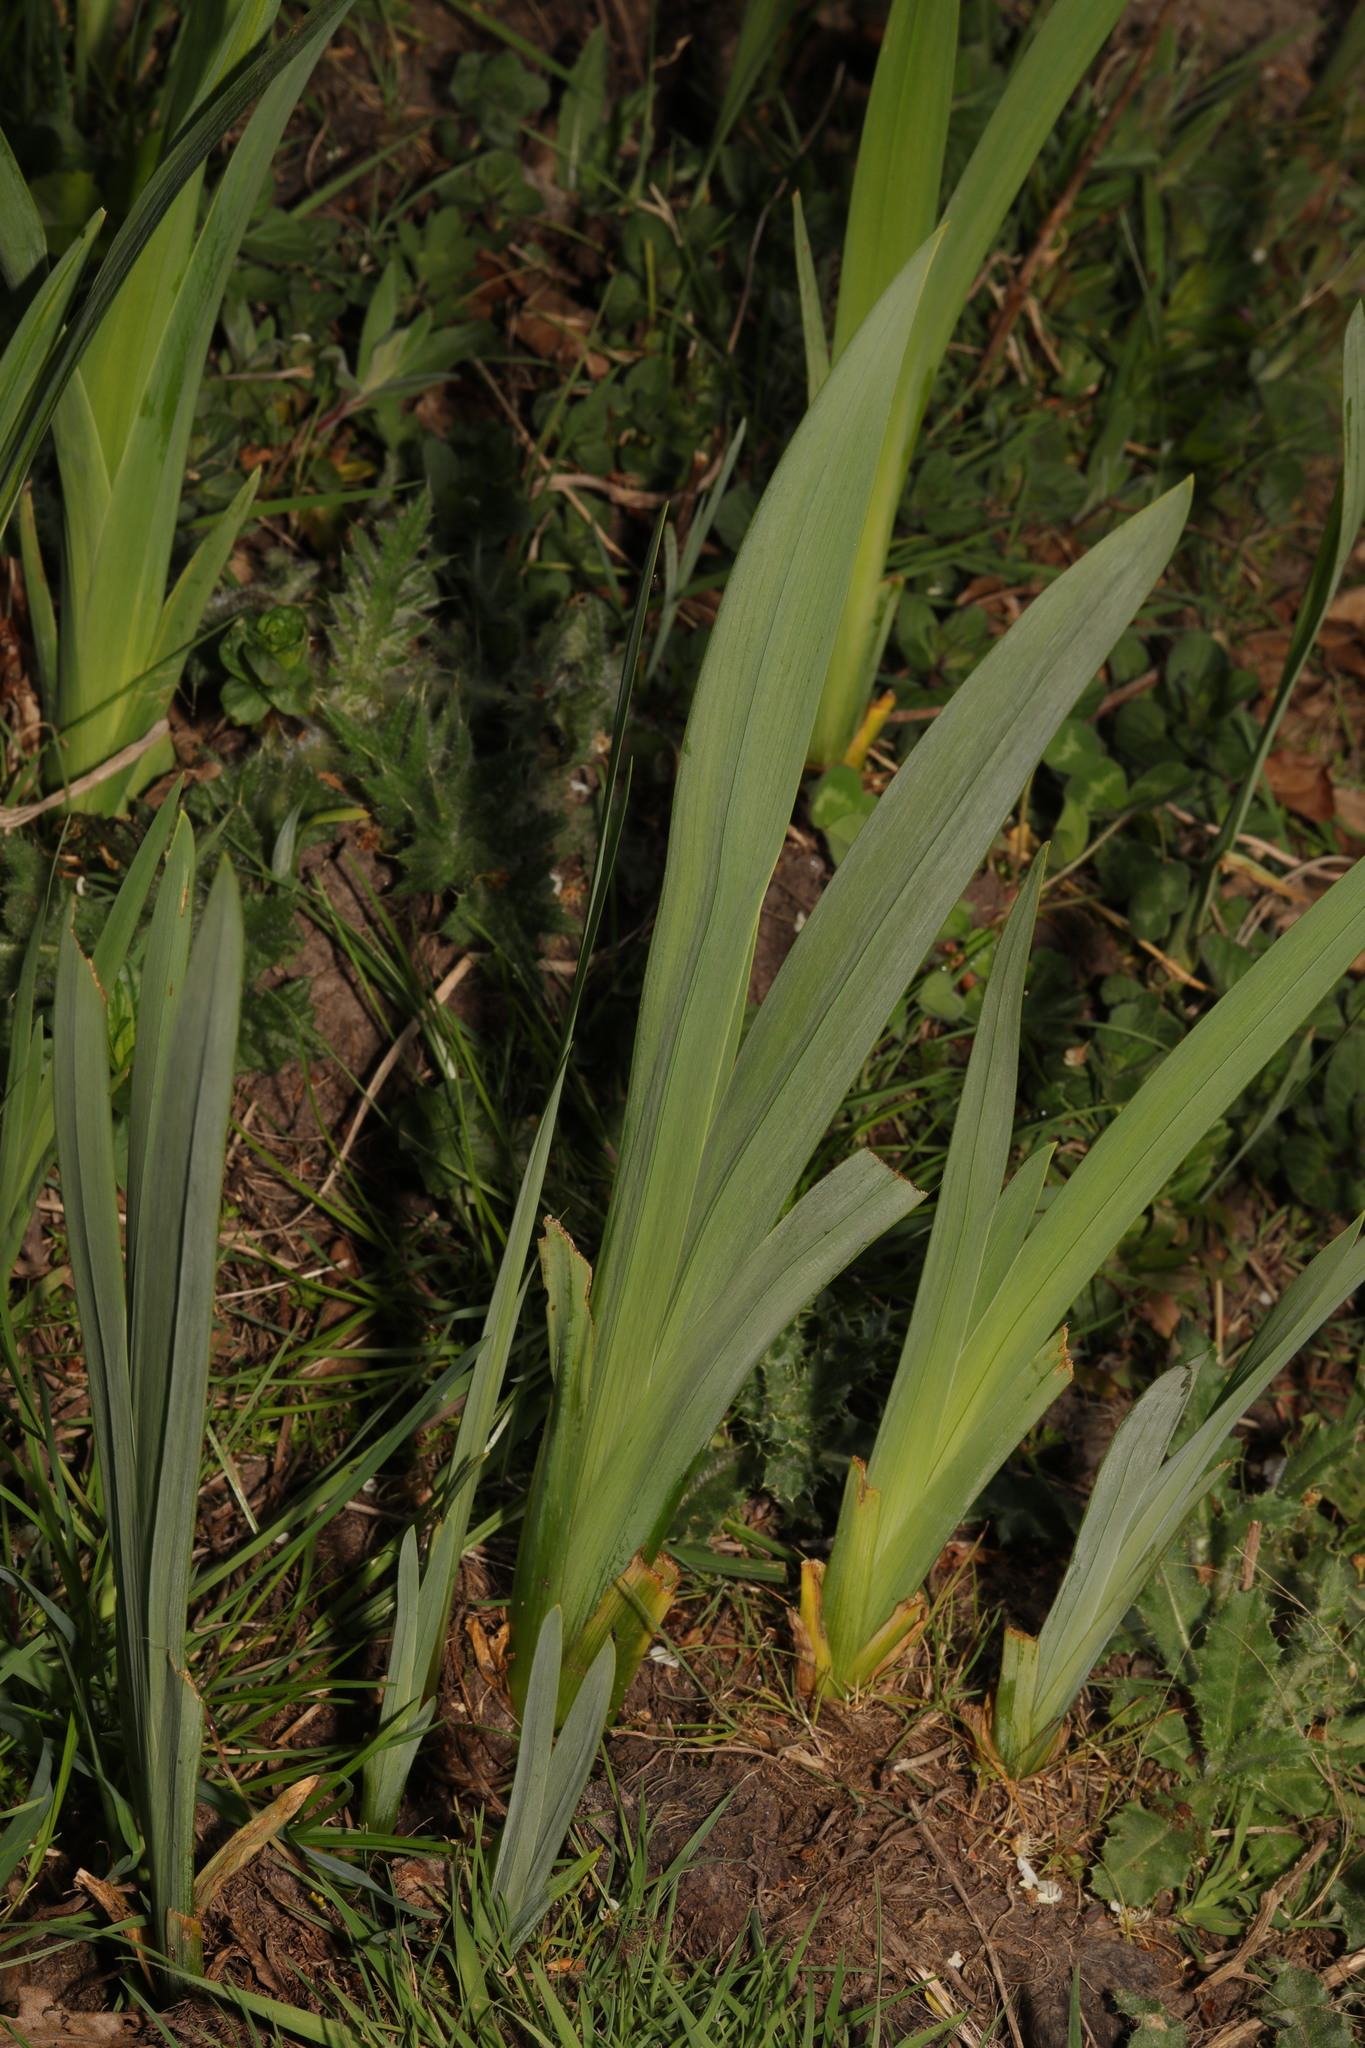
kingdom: Plantae
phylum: Tracheophyta
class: Liliopsida
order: Asparagales
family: Iridaceae
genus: Iris
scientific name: Iris pseudacorus
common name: Yellow flag
